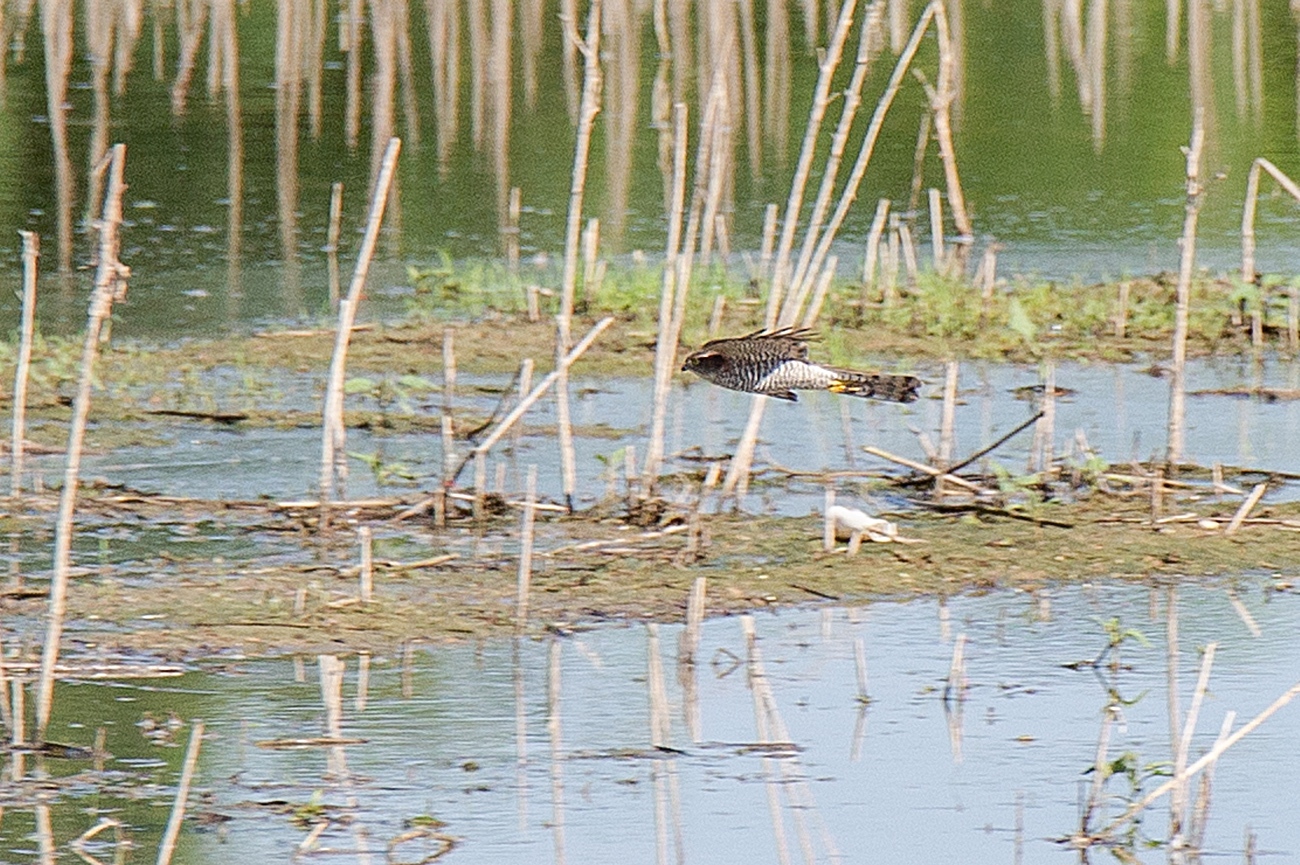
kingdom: Animalia
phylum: Chordata
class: Aves
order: Accipitriformes
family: Accipitridae
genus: Accipiter
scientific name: Accipiter nisus
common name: Eurasian sparrowhawk
